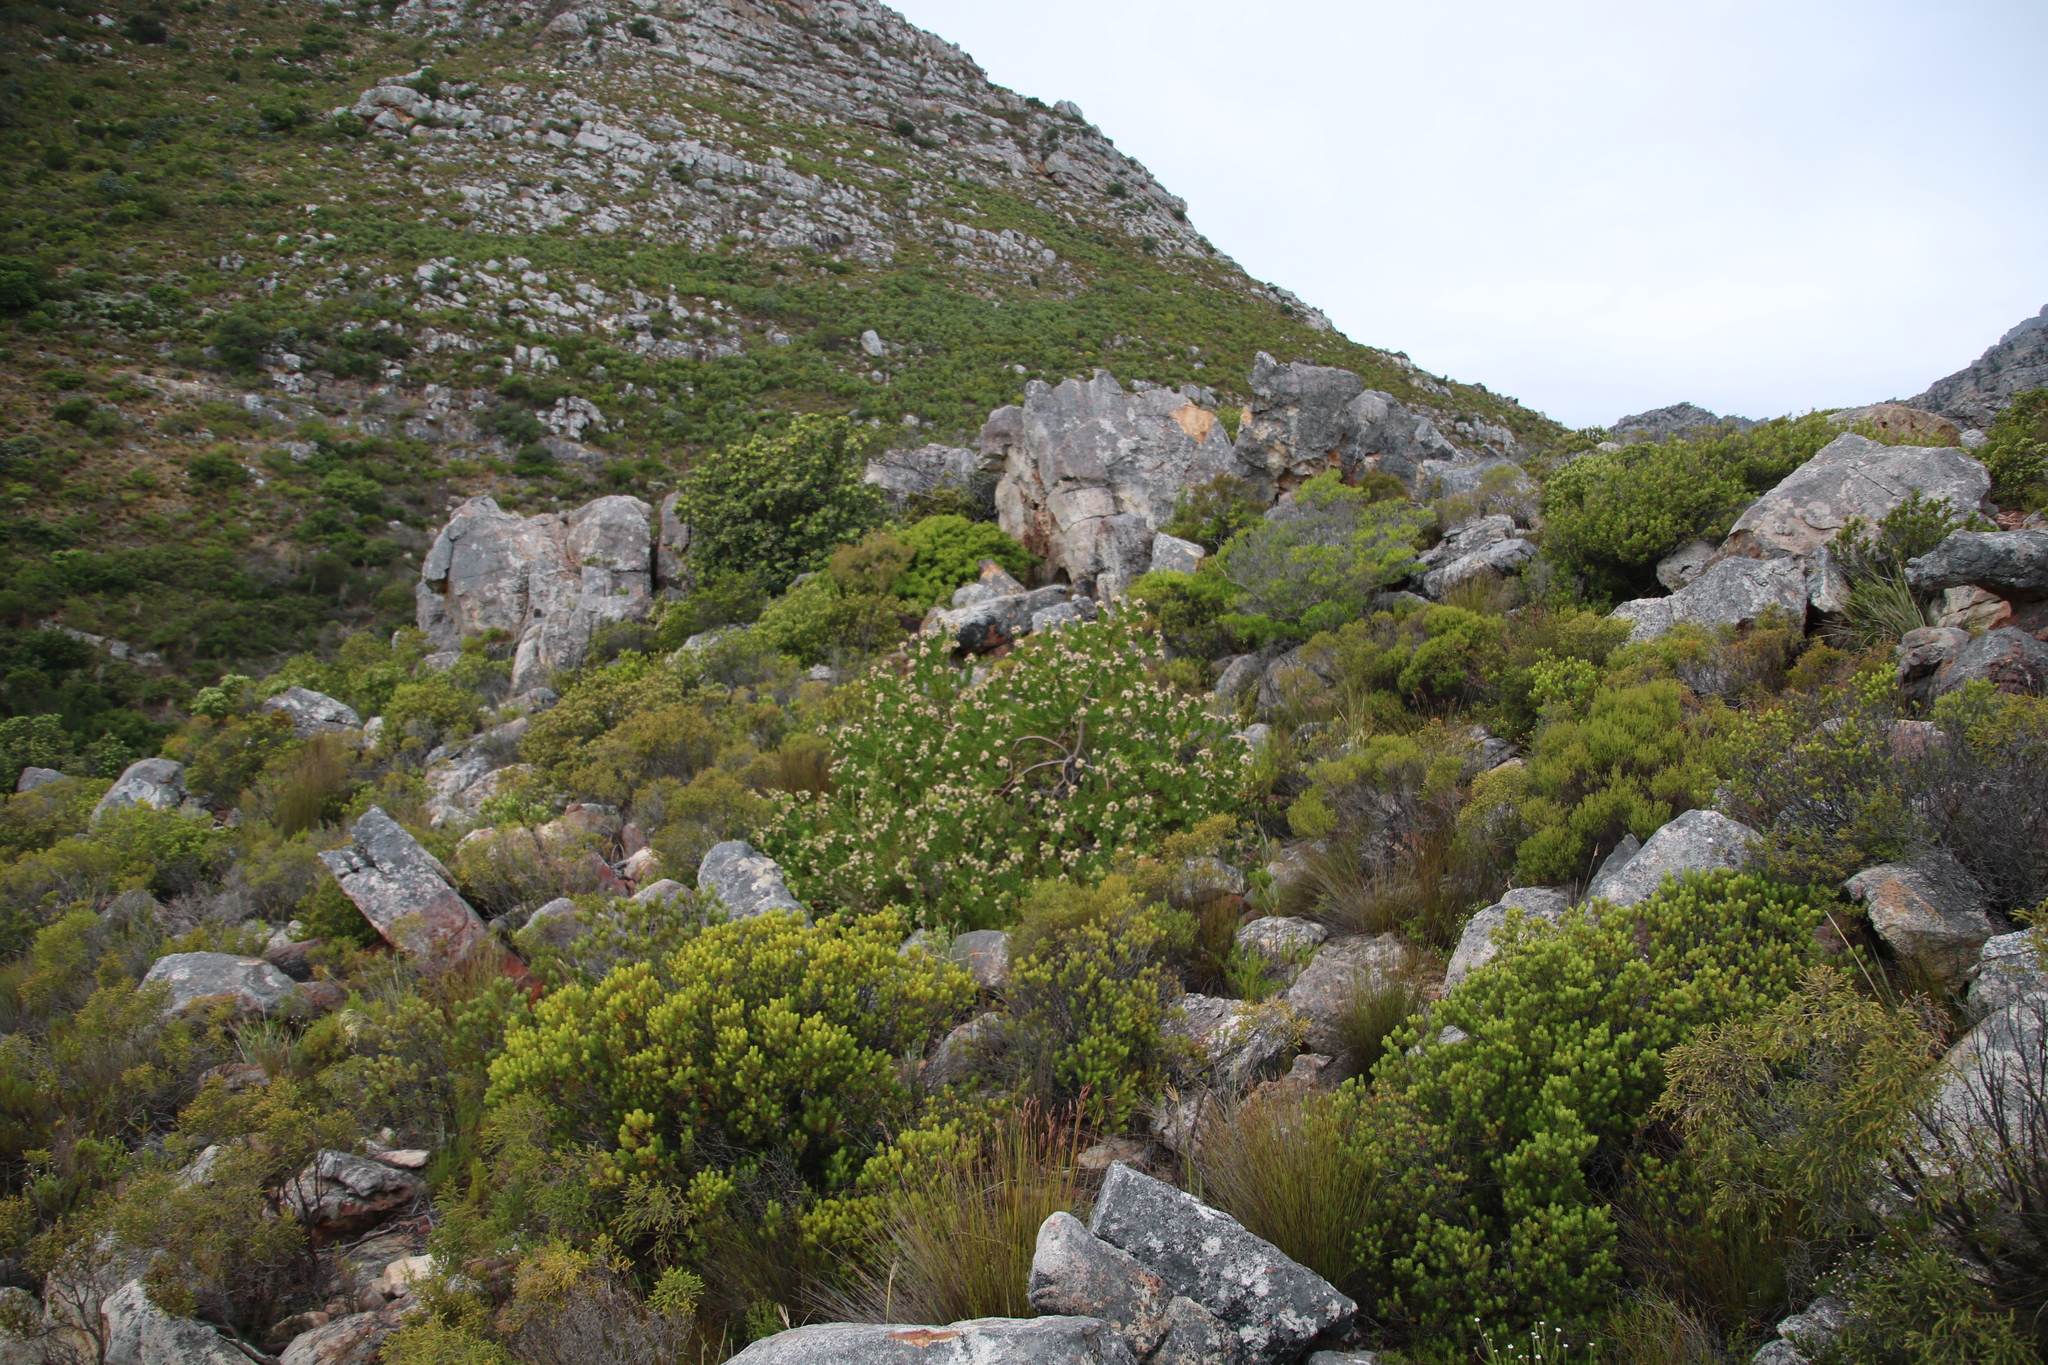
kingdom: Plantae
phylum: Tracheophyta
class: Magnoliopsida
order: Proteales
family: Proteaceae
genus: Leucospermum
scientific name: Leucospermum bolusii
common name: Gordon's bay pincushion
